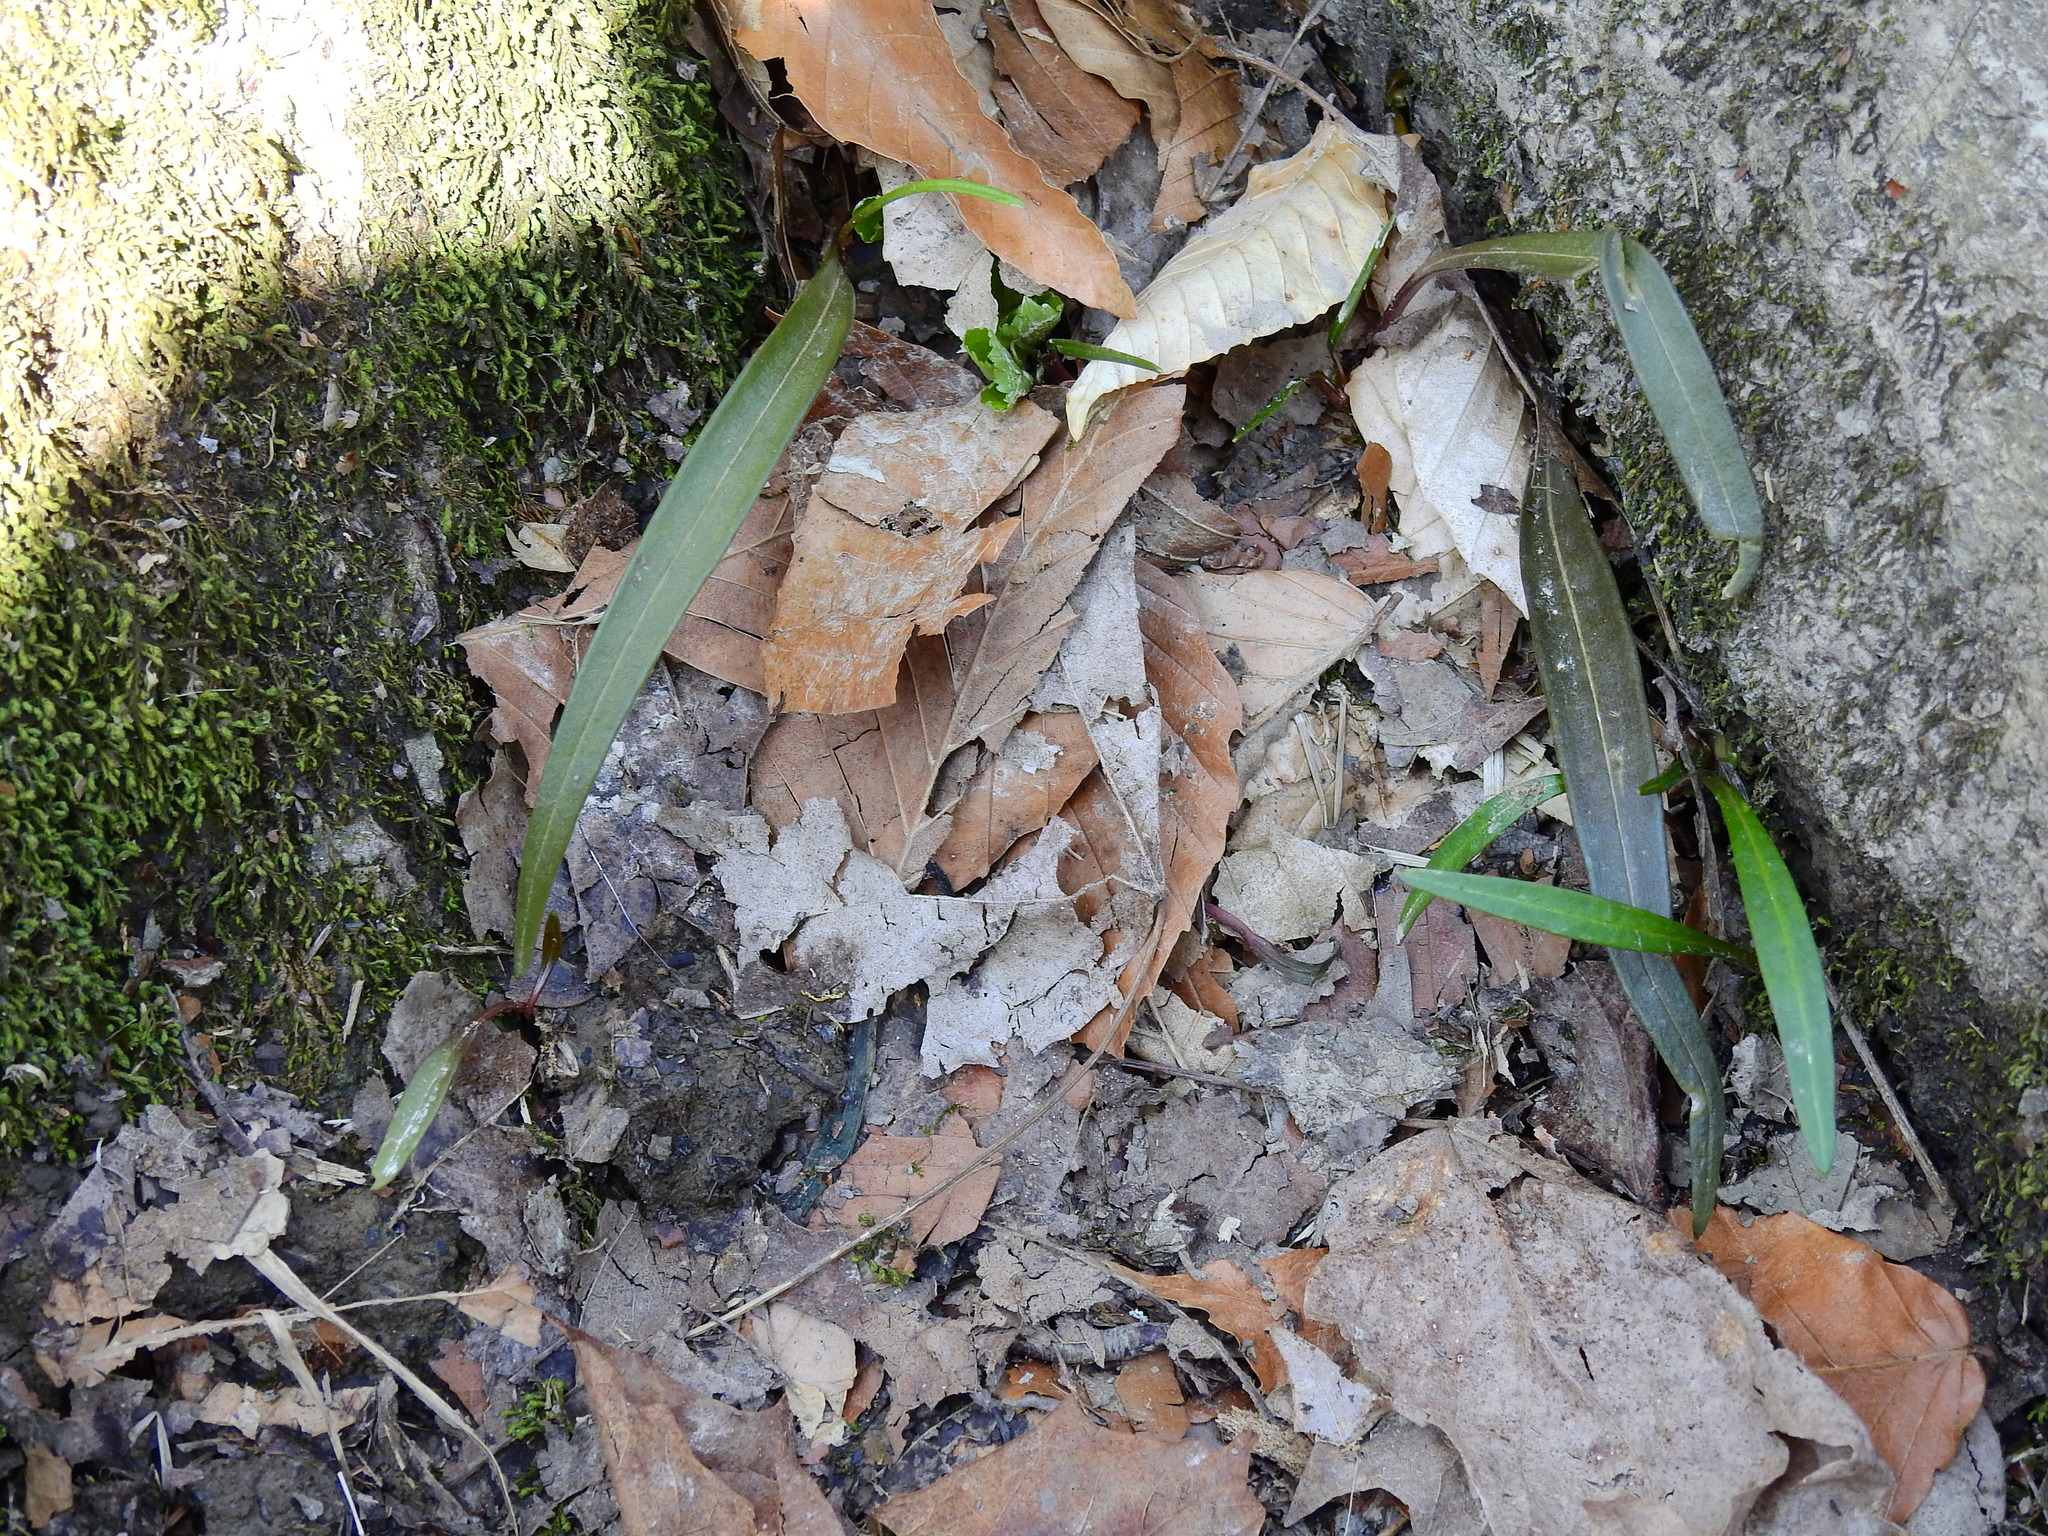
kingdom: Plantae
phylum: Tracheophyta
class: Magnoliopsida
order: Caryophyllales
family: Montiaceae
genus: Claytonia
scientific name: Claytonia virginica
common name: Virginia springbeauty
